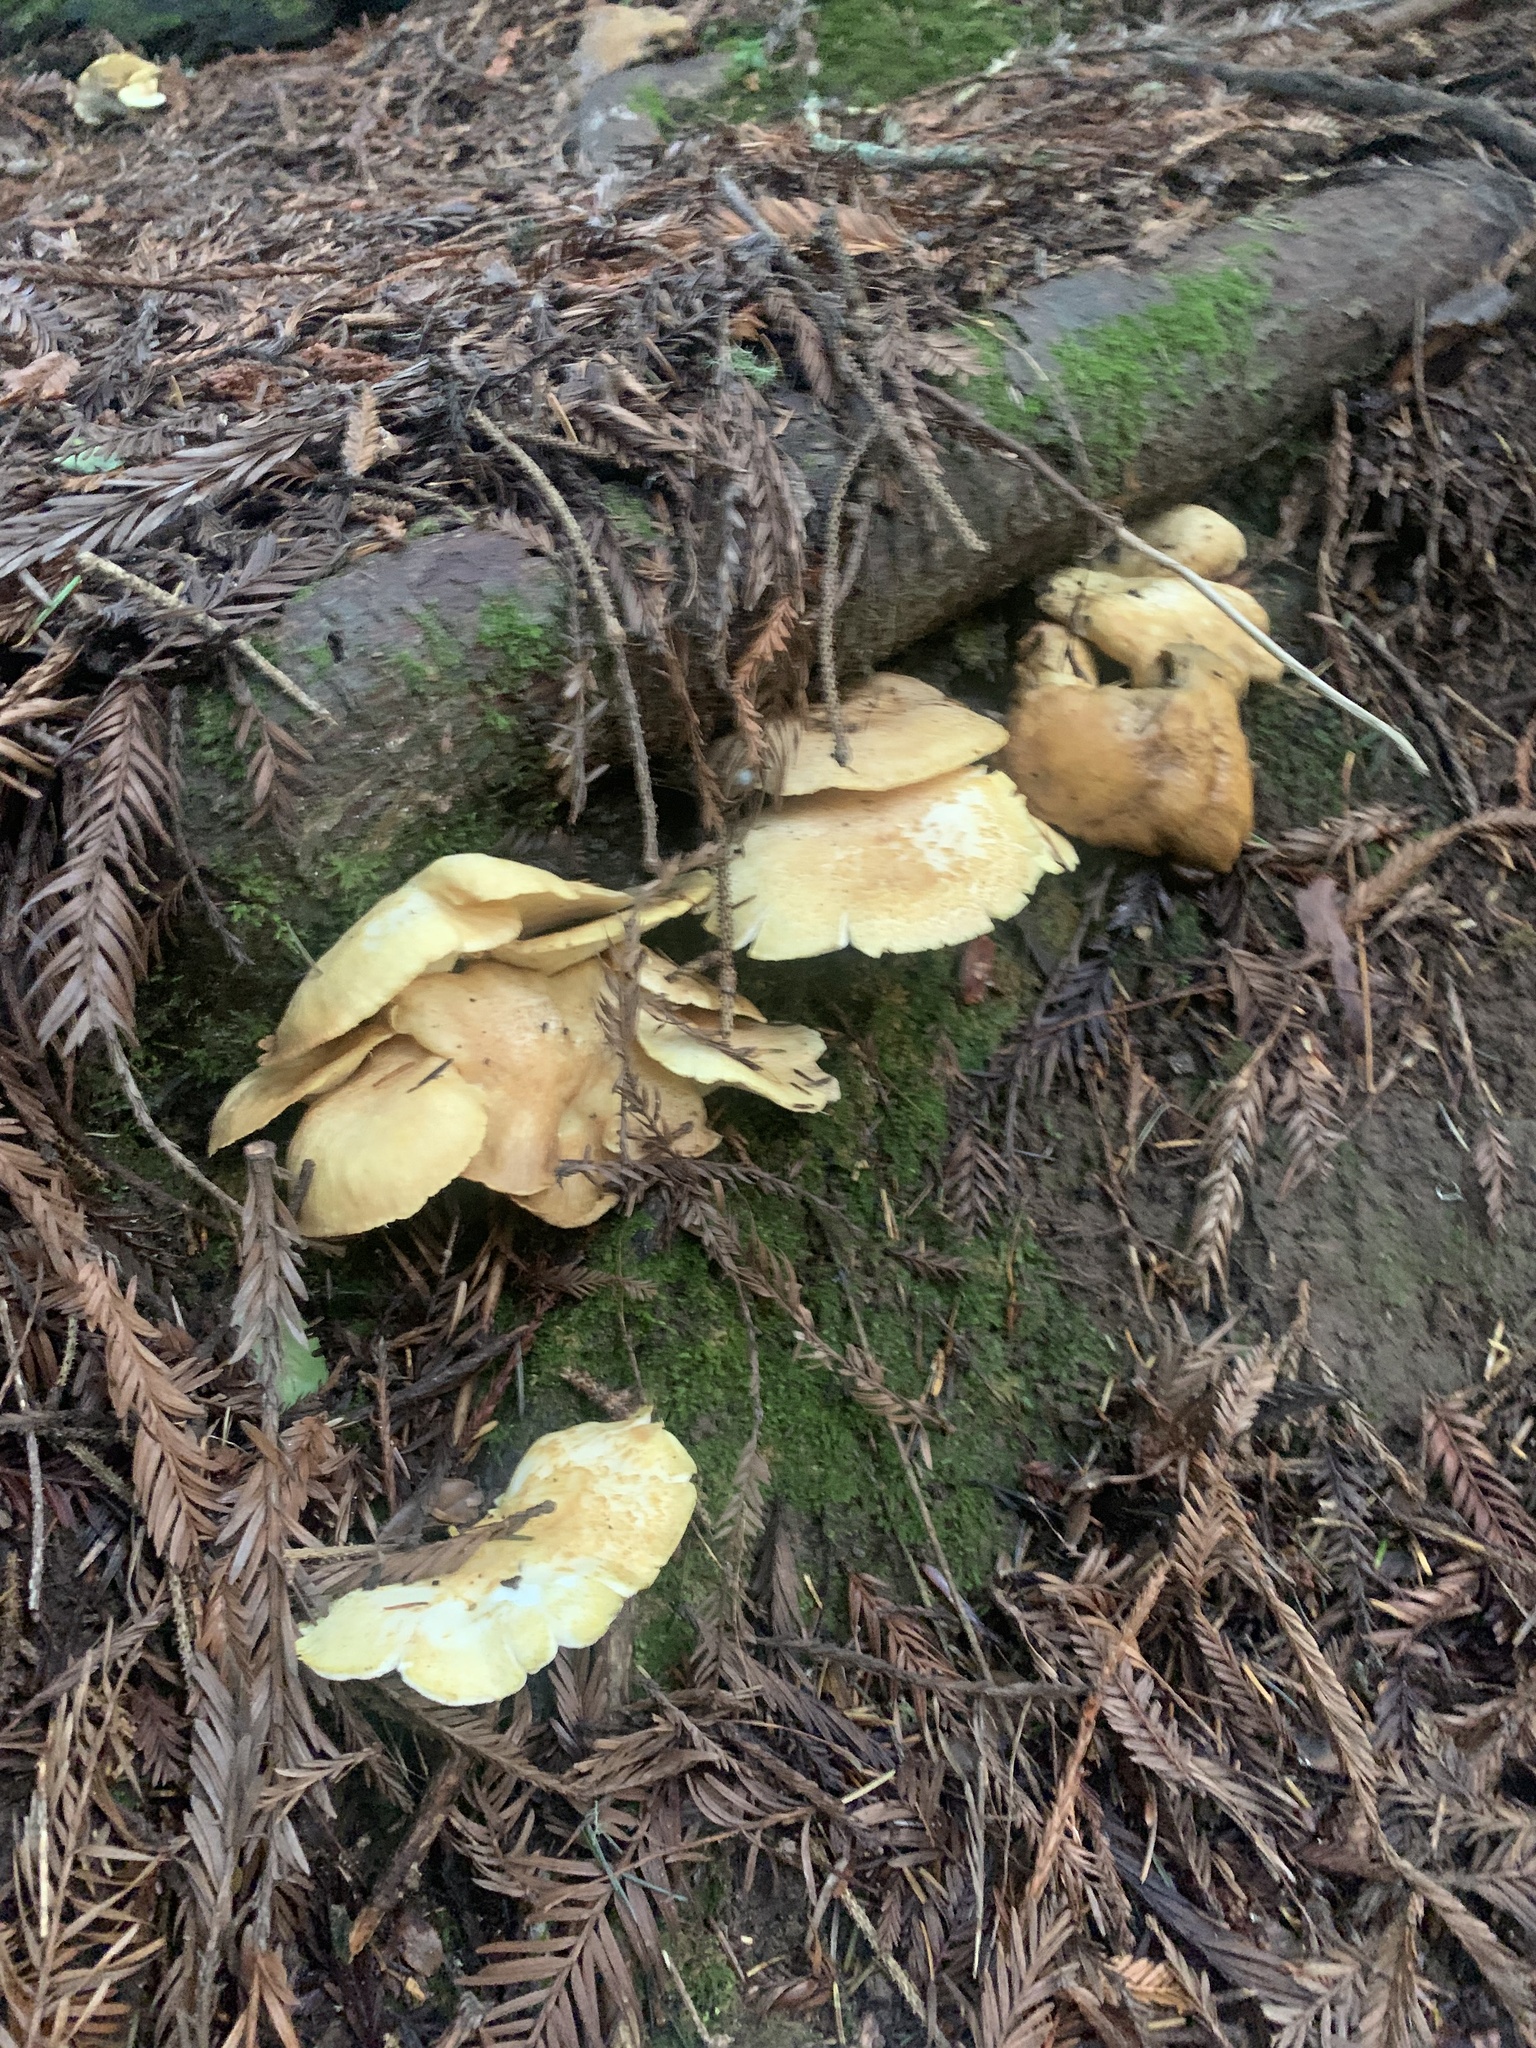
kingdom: Fungi
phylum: Basidiomycota
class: Agaricomycetes
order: Russulales
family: Albatrellaceae
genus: Albatrellus
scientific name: Albatrellus avellaneus
